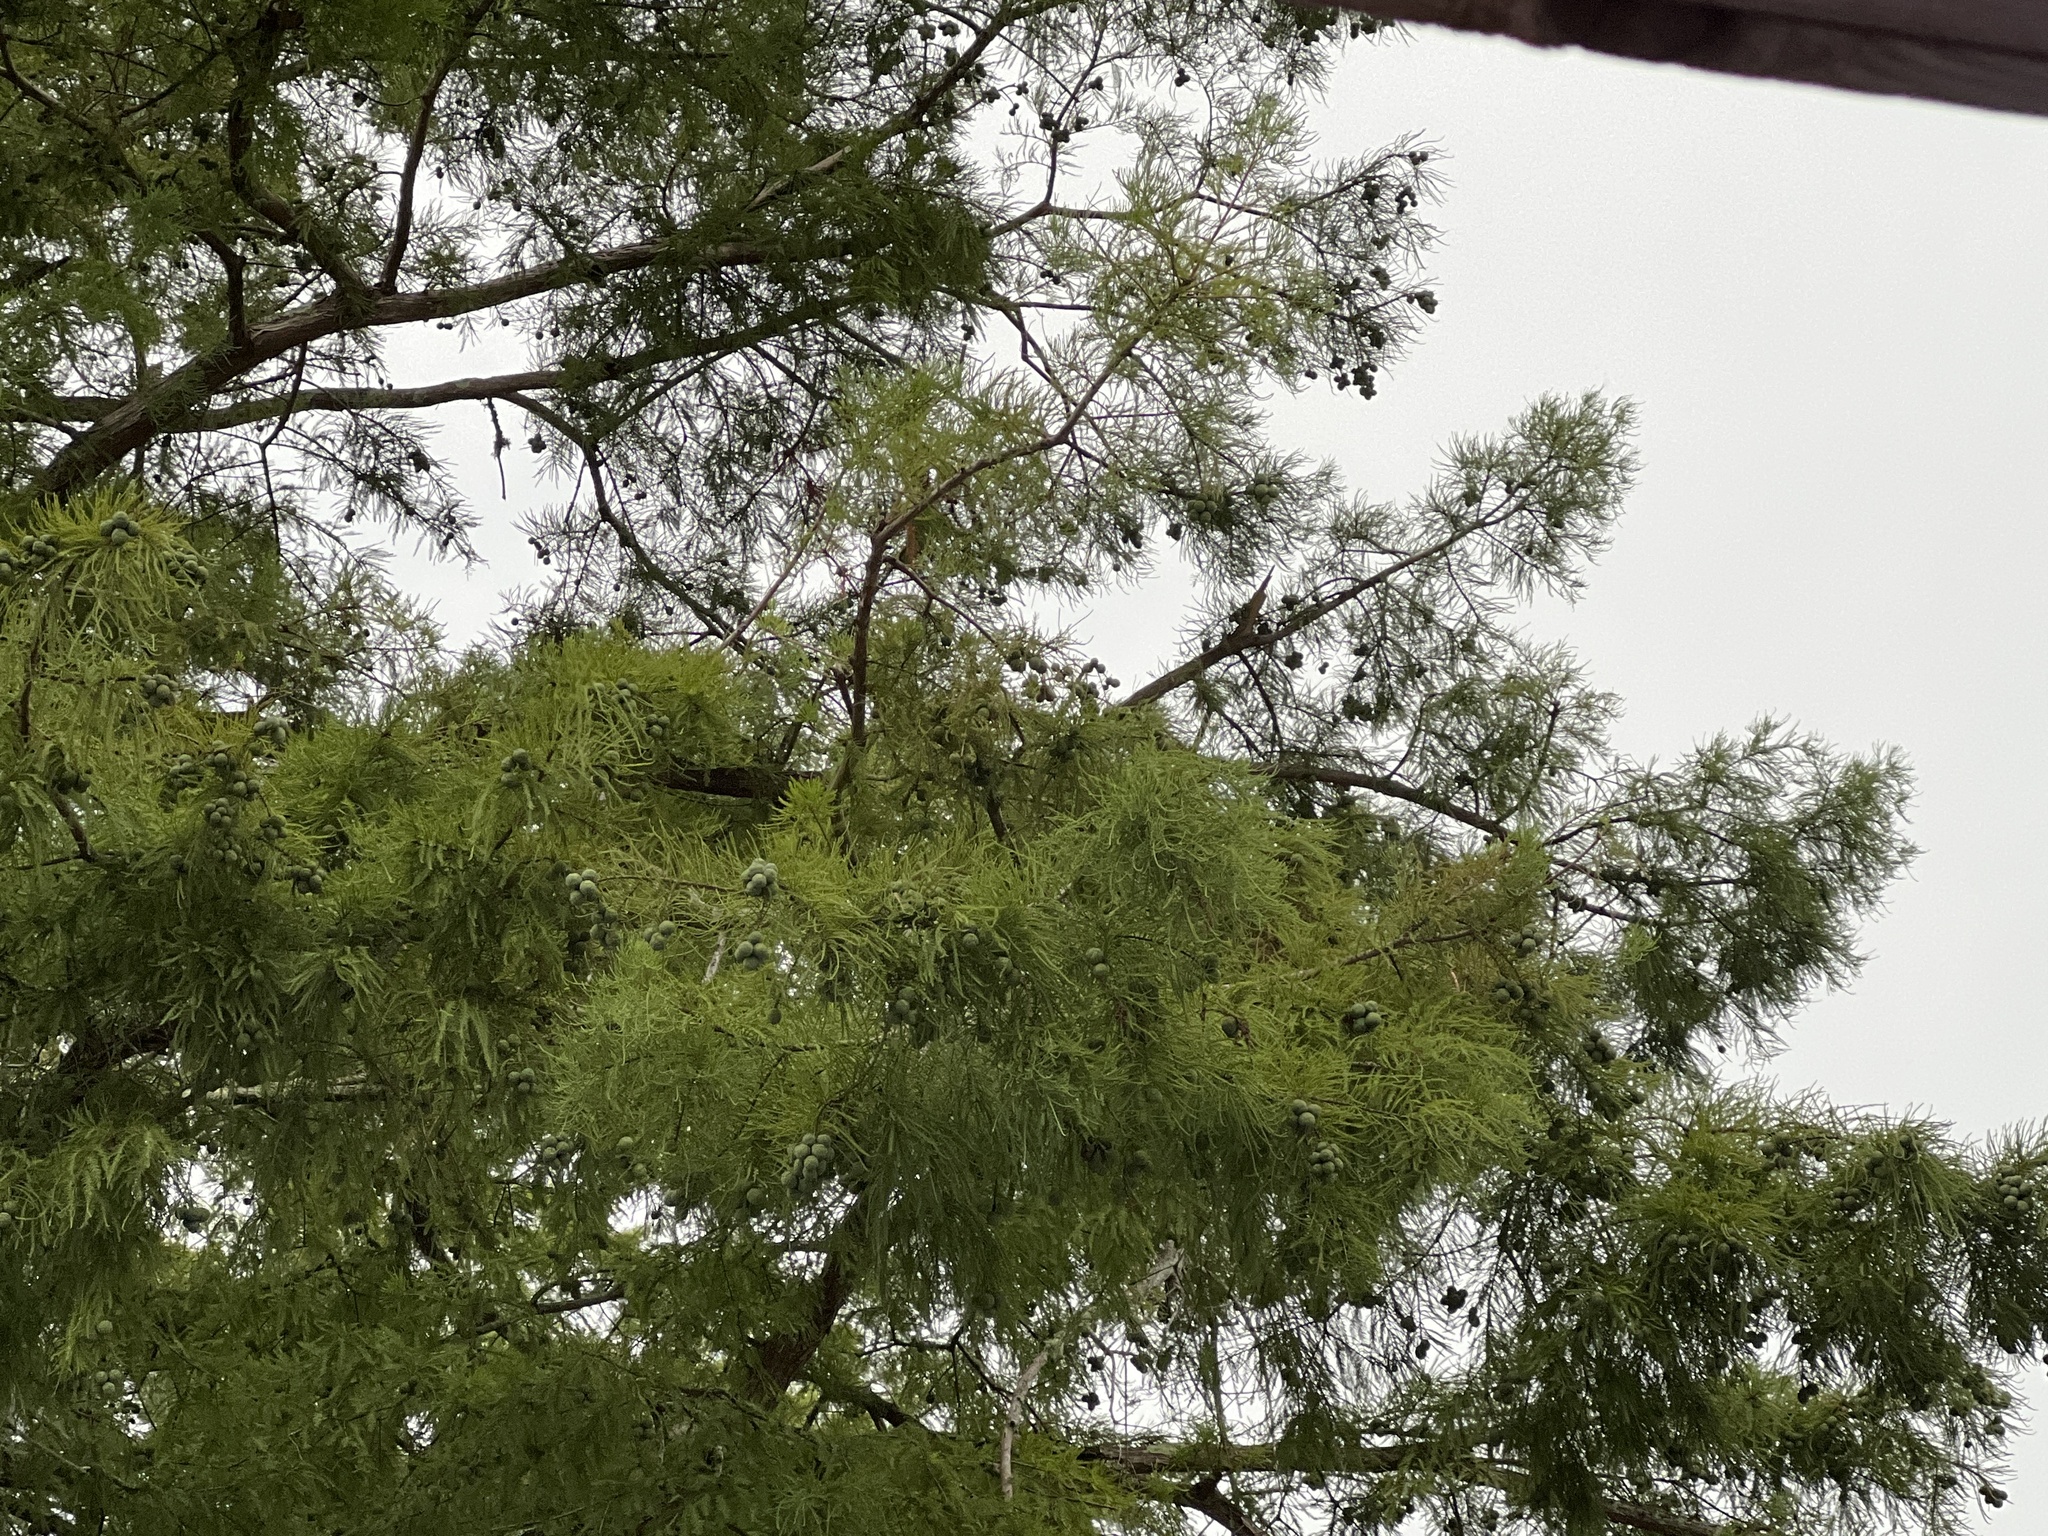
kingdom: Plantae
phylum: Tracheophyta
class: Pinopsida
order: Pinales
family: Cupressaceae
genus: Taxodium
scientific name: Taxodium distichum
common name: Bald cypress
